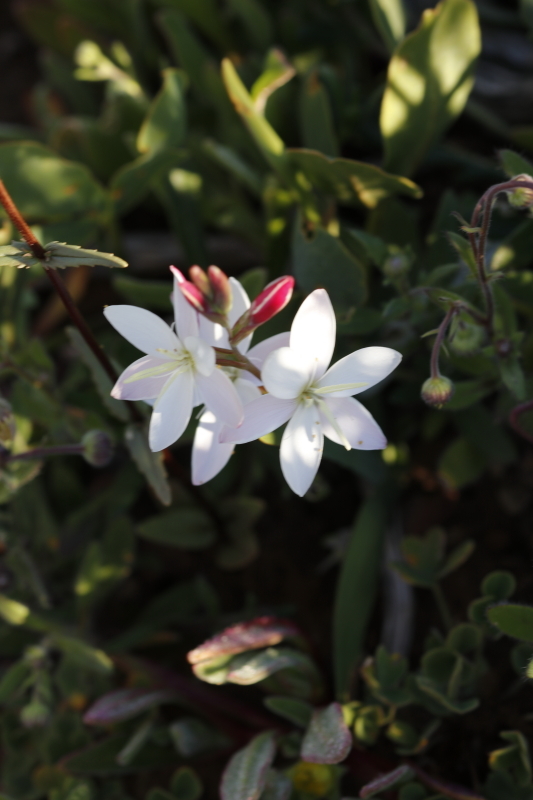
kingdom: Plantae
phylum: Tracheophyta
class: Liliopsida
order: Asparagales
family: Iridaceae
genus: Hesperantha
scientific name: Hesperantha falcata
